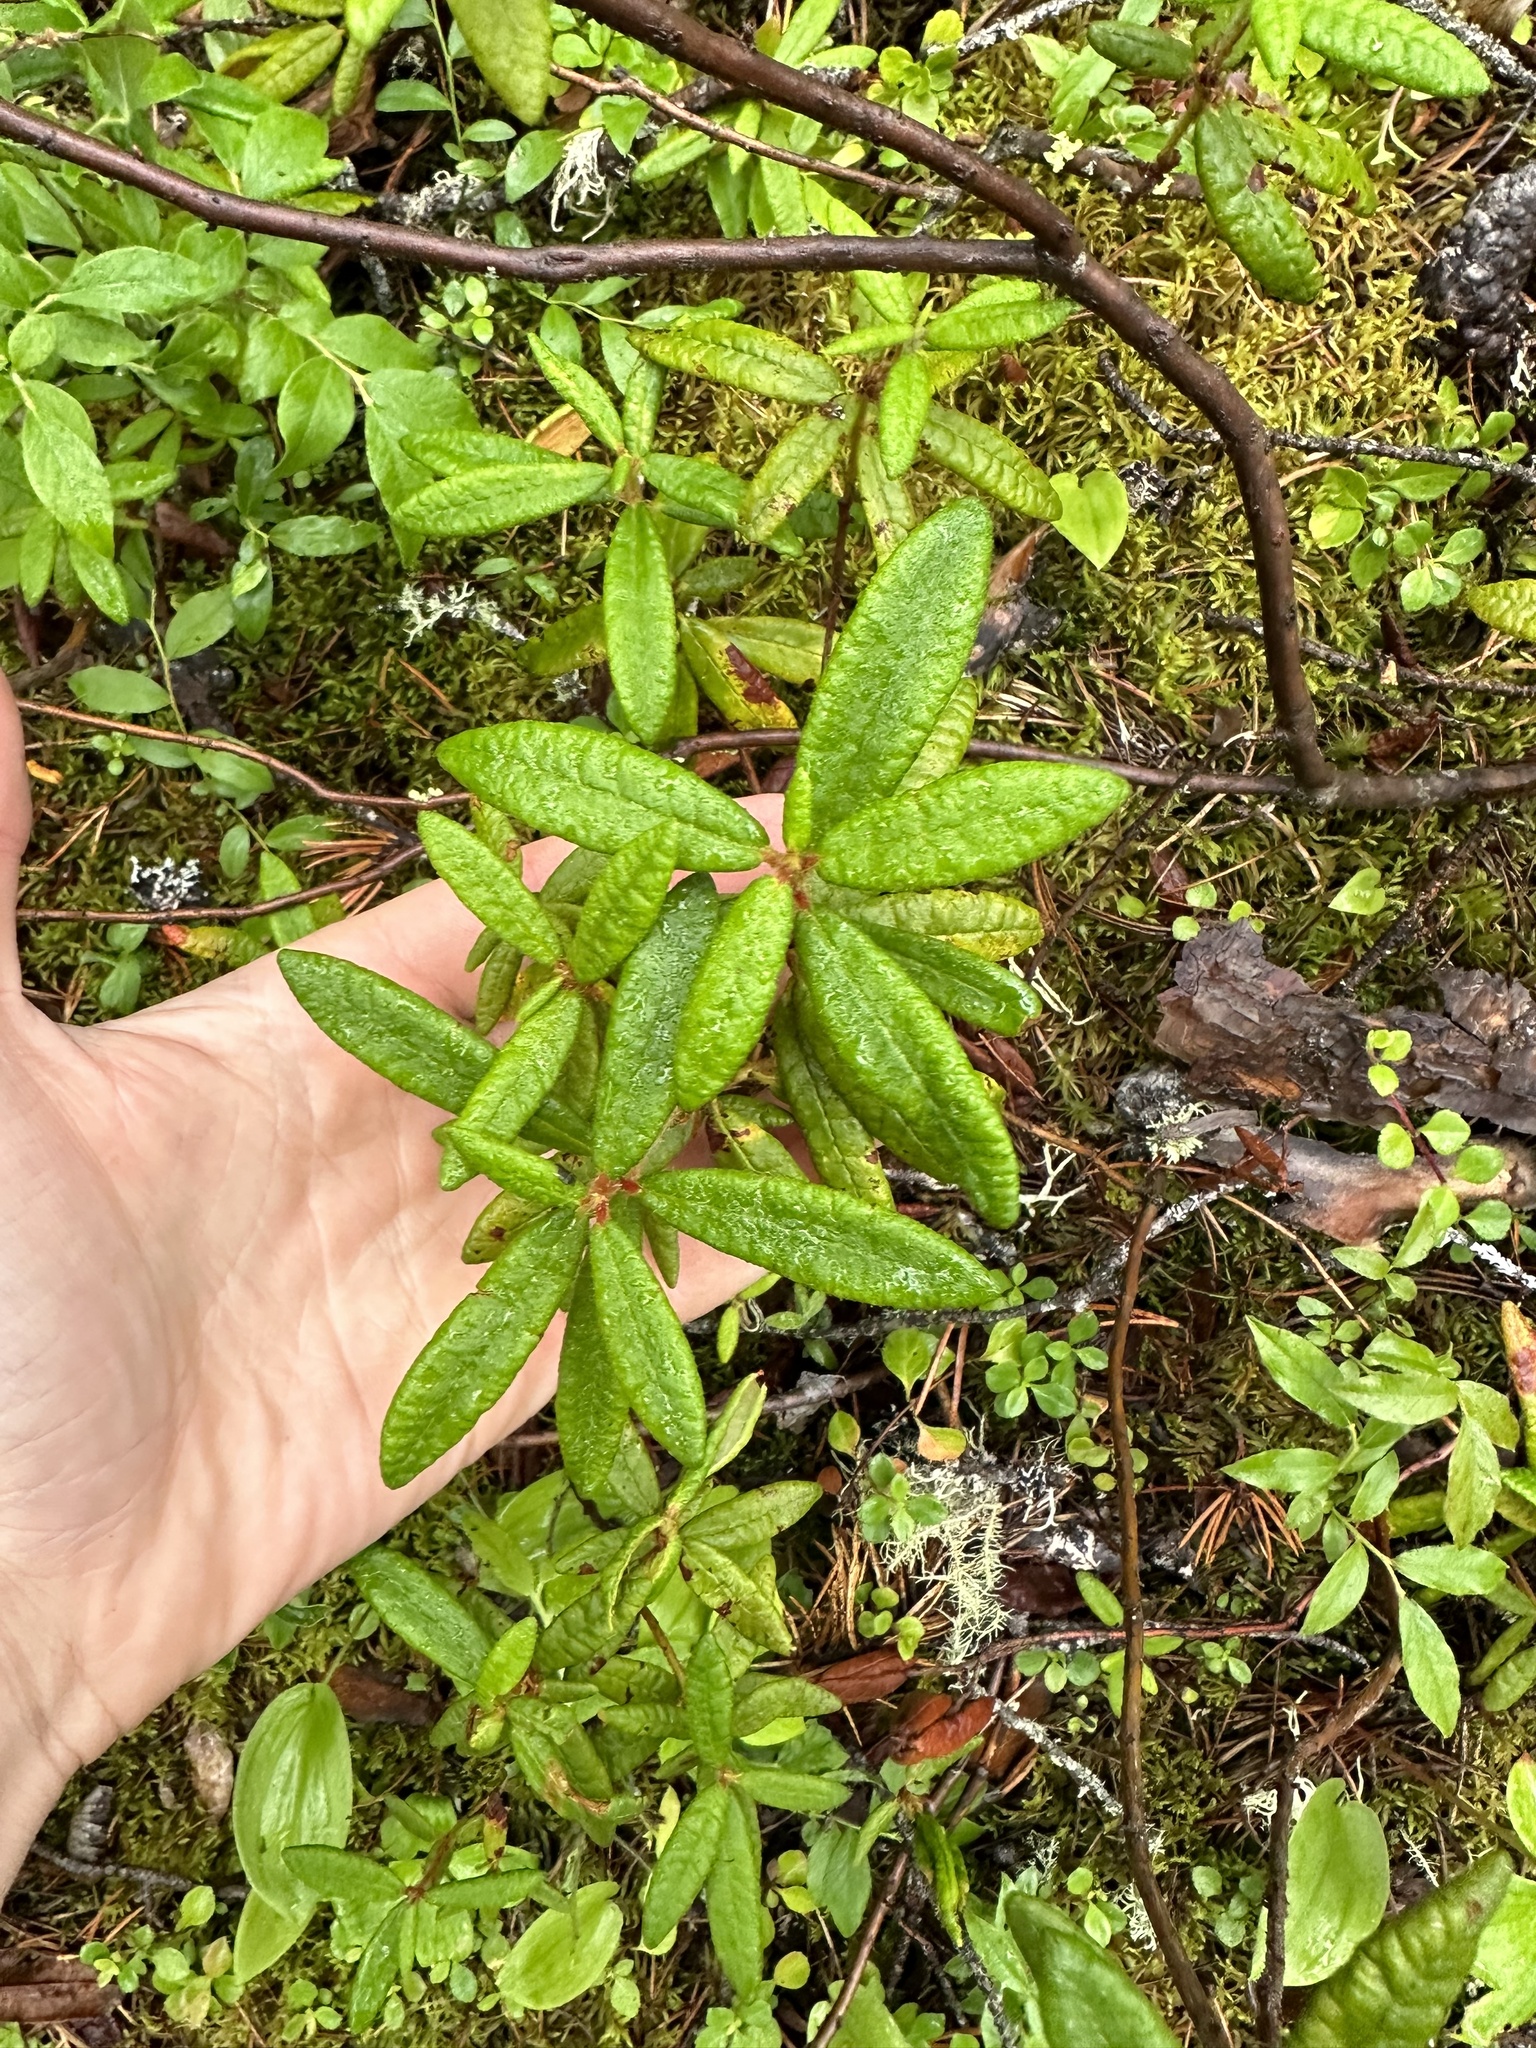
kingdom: Plantae
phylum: Tracheophyta
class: Magnoliopsida
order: Ericales
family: Ericaceae
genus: Rhododendron
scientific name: Rhododendron groenlandicum
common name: Bog labrador tea
